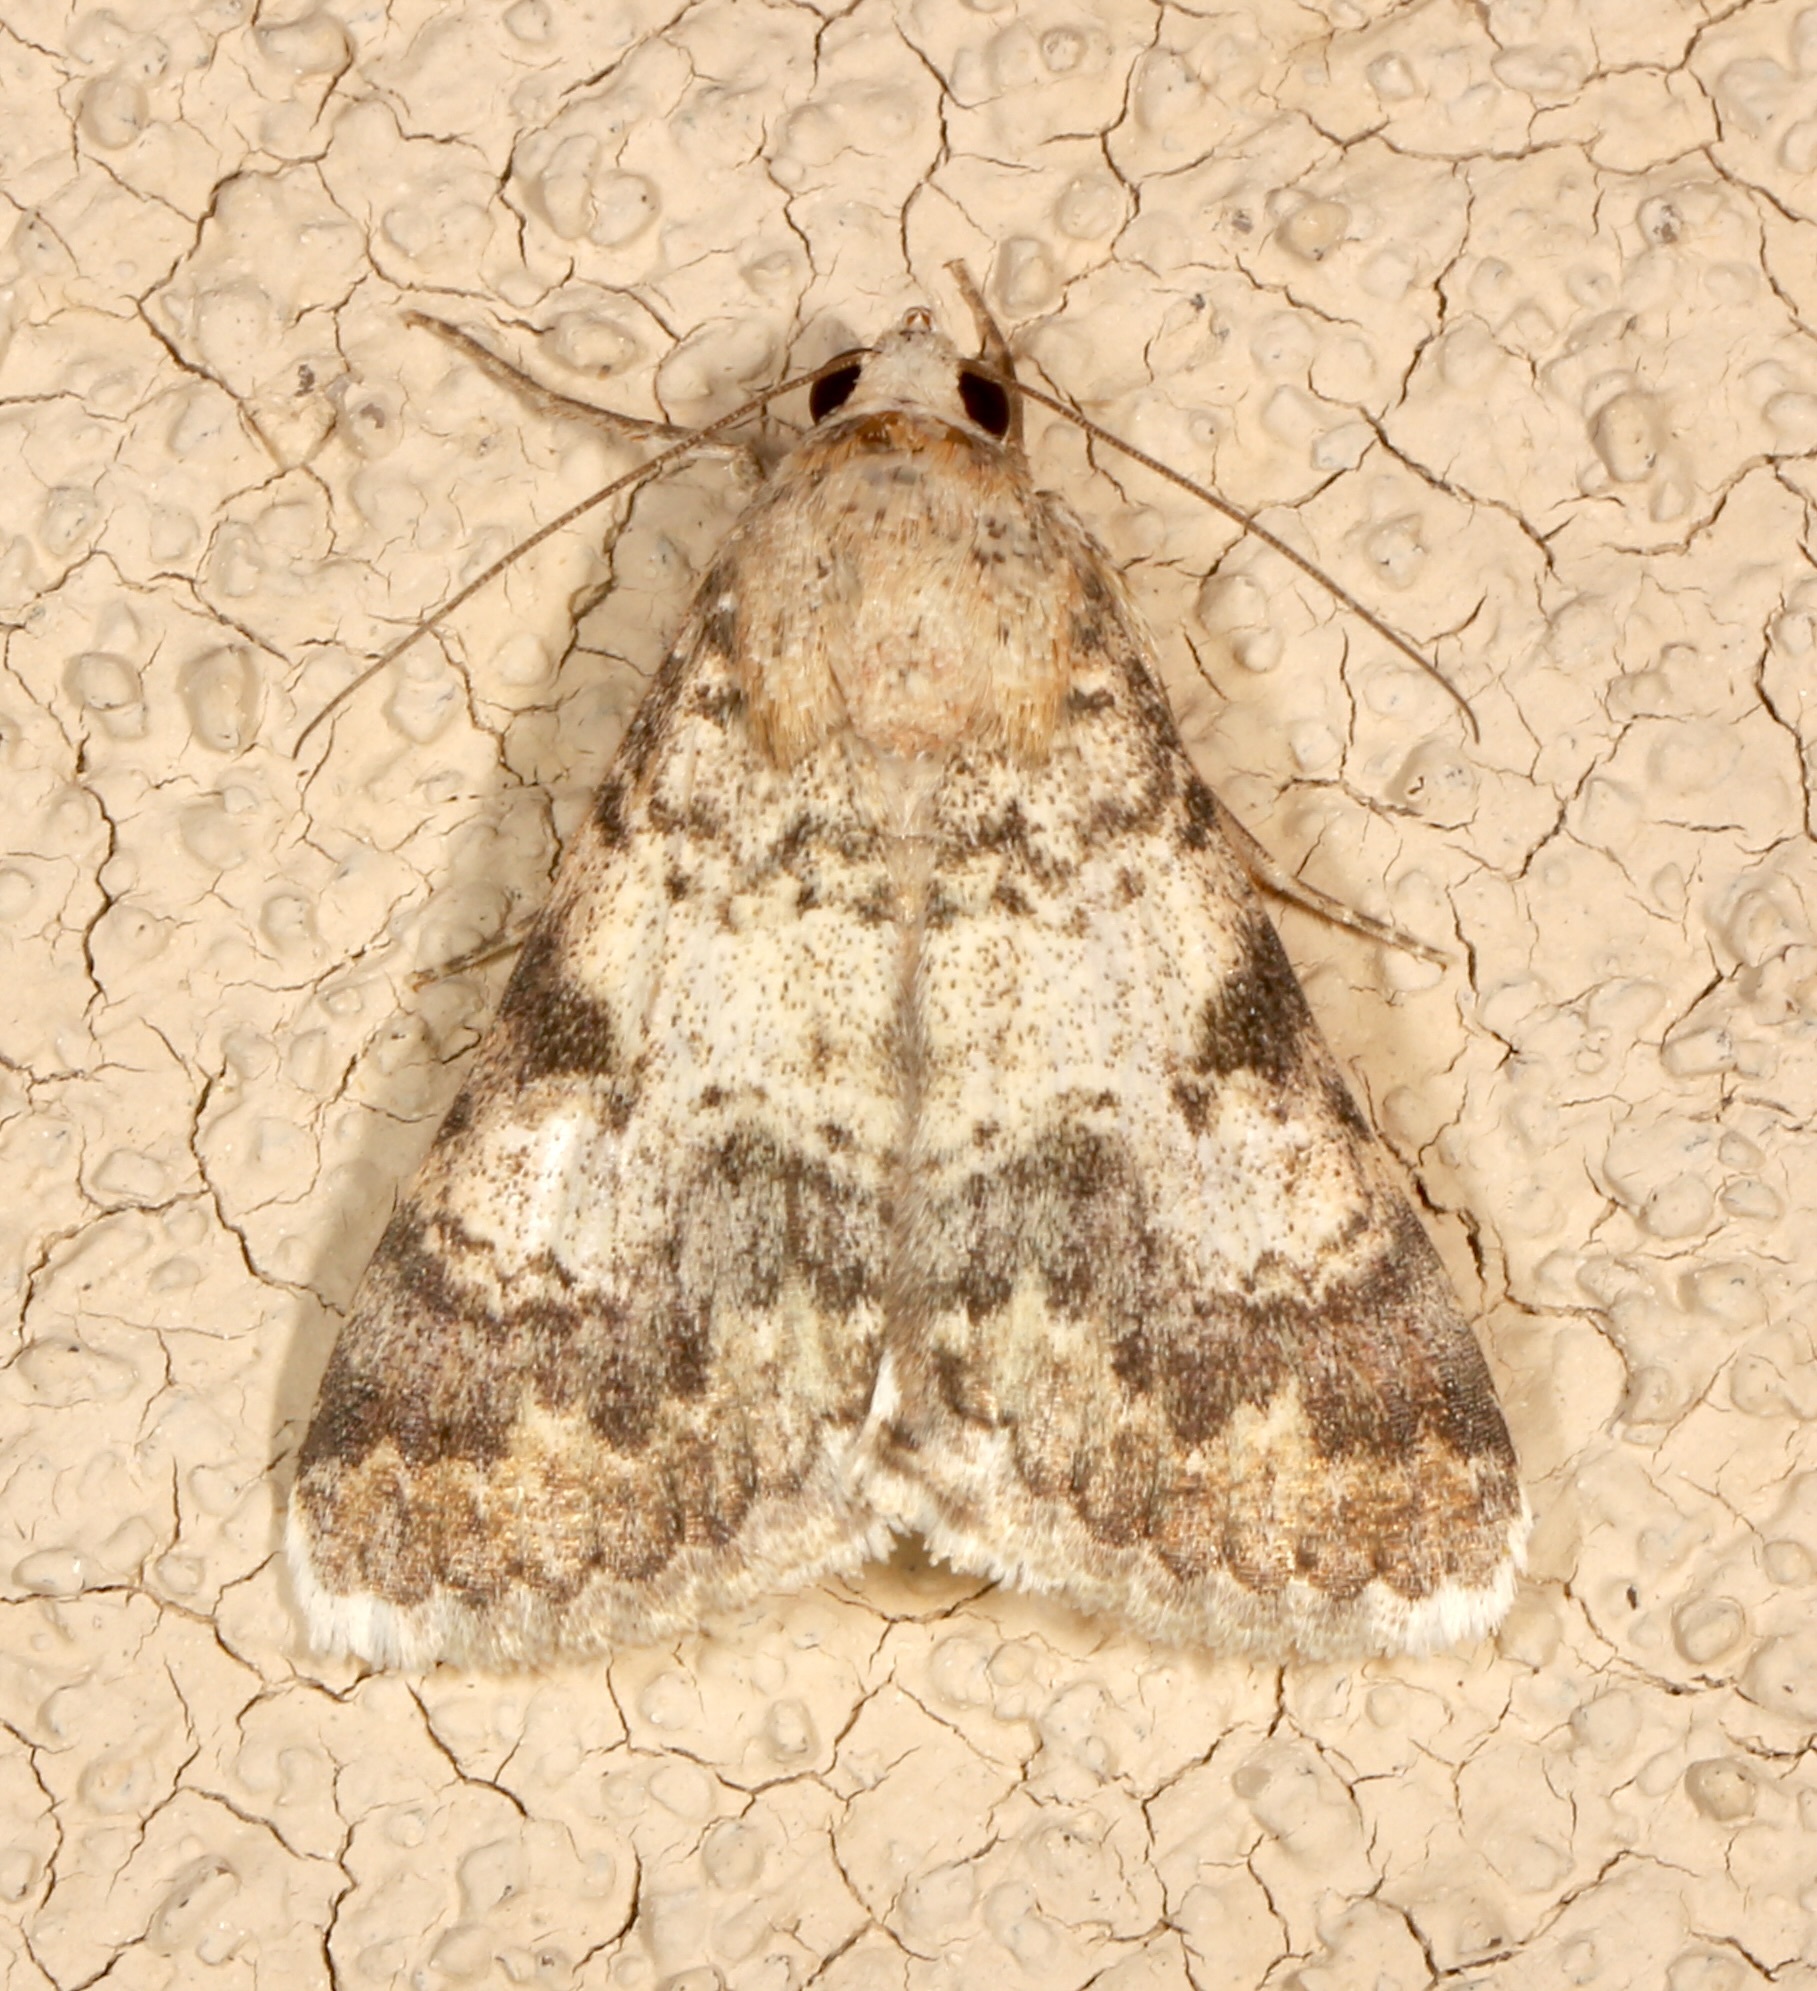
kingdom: Animalia
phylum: Arthropoda
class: Insecta
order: Lepidoptera
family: Erebidae
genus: Melipotis
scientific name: Melipotis jucunda
